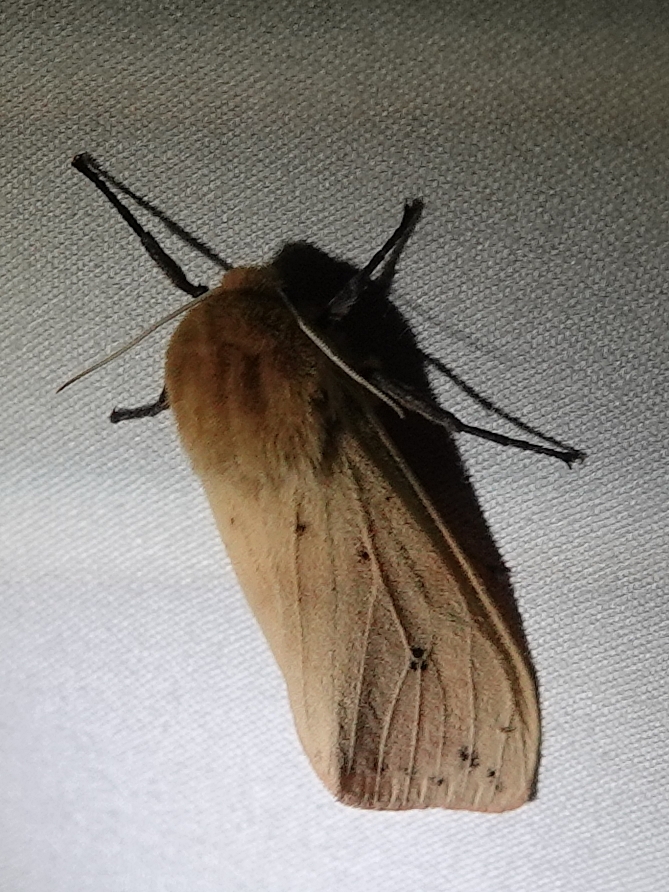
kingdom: Animalia
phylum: Arthropoda
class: Insecta
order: Lepidoptera
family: Erebidae
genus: Pyrrharctia
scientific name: Pyrrharctia isabella
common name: Isabella tiger moth
